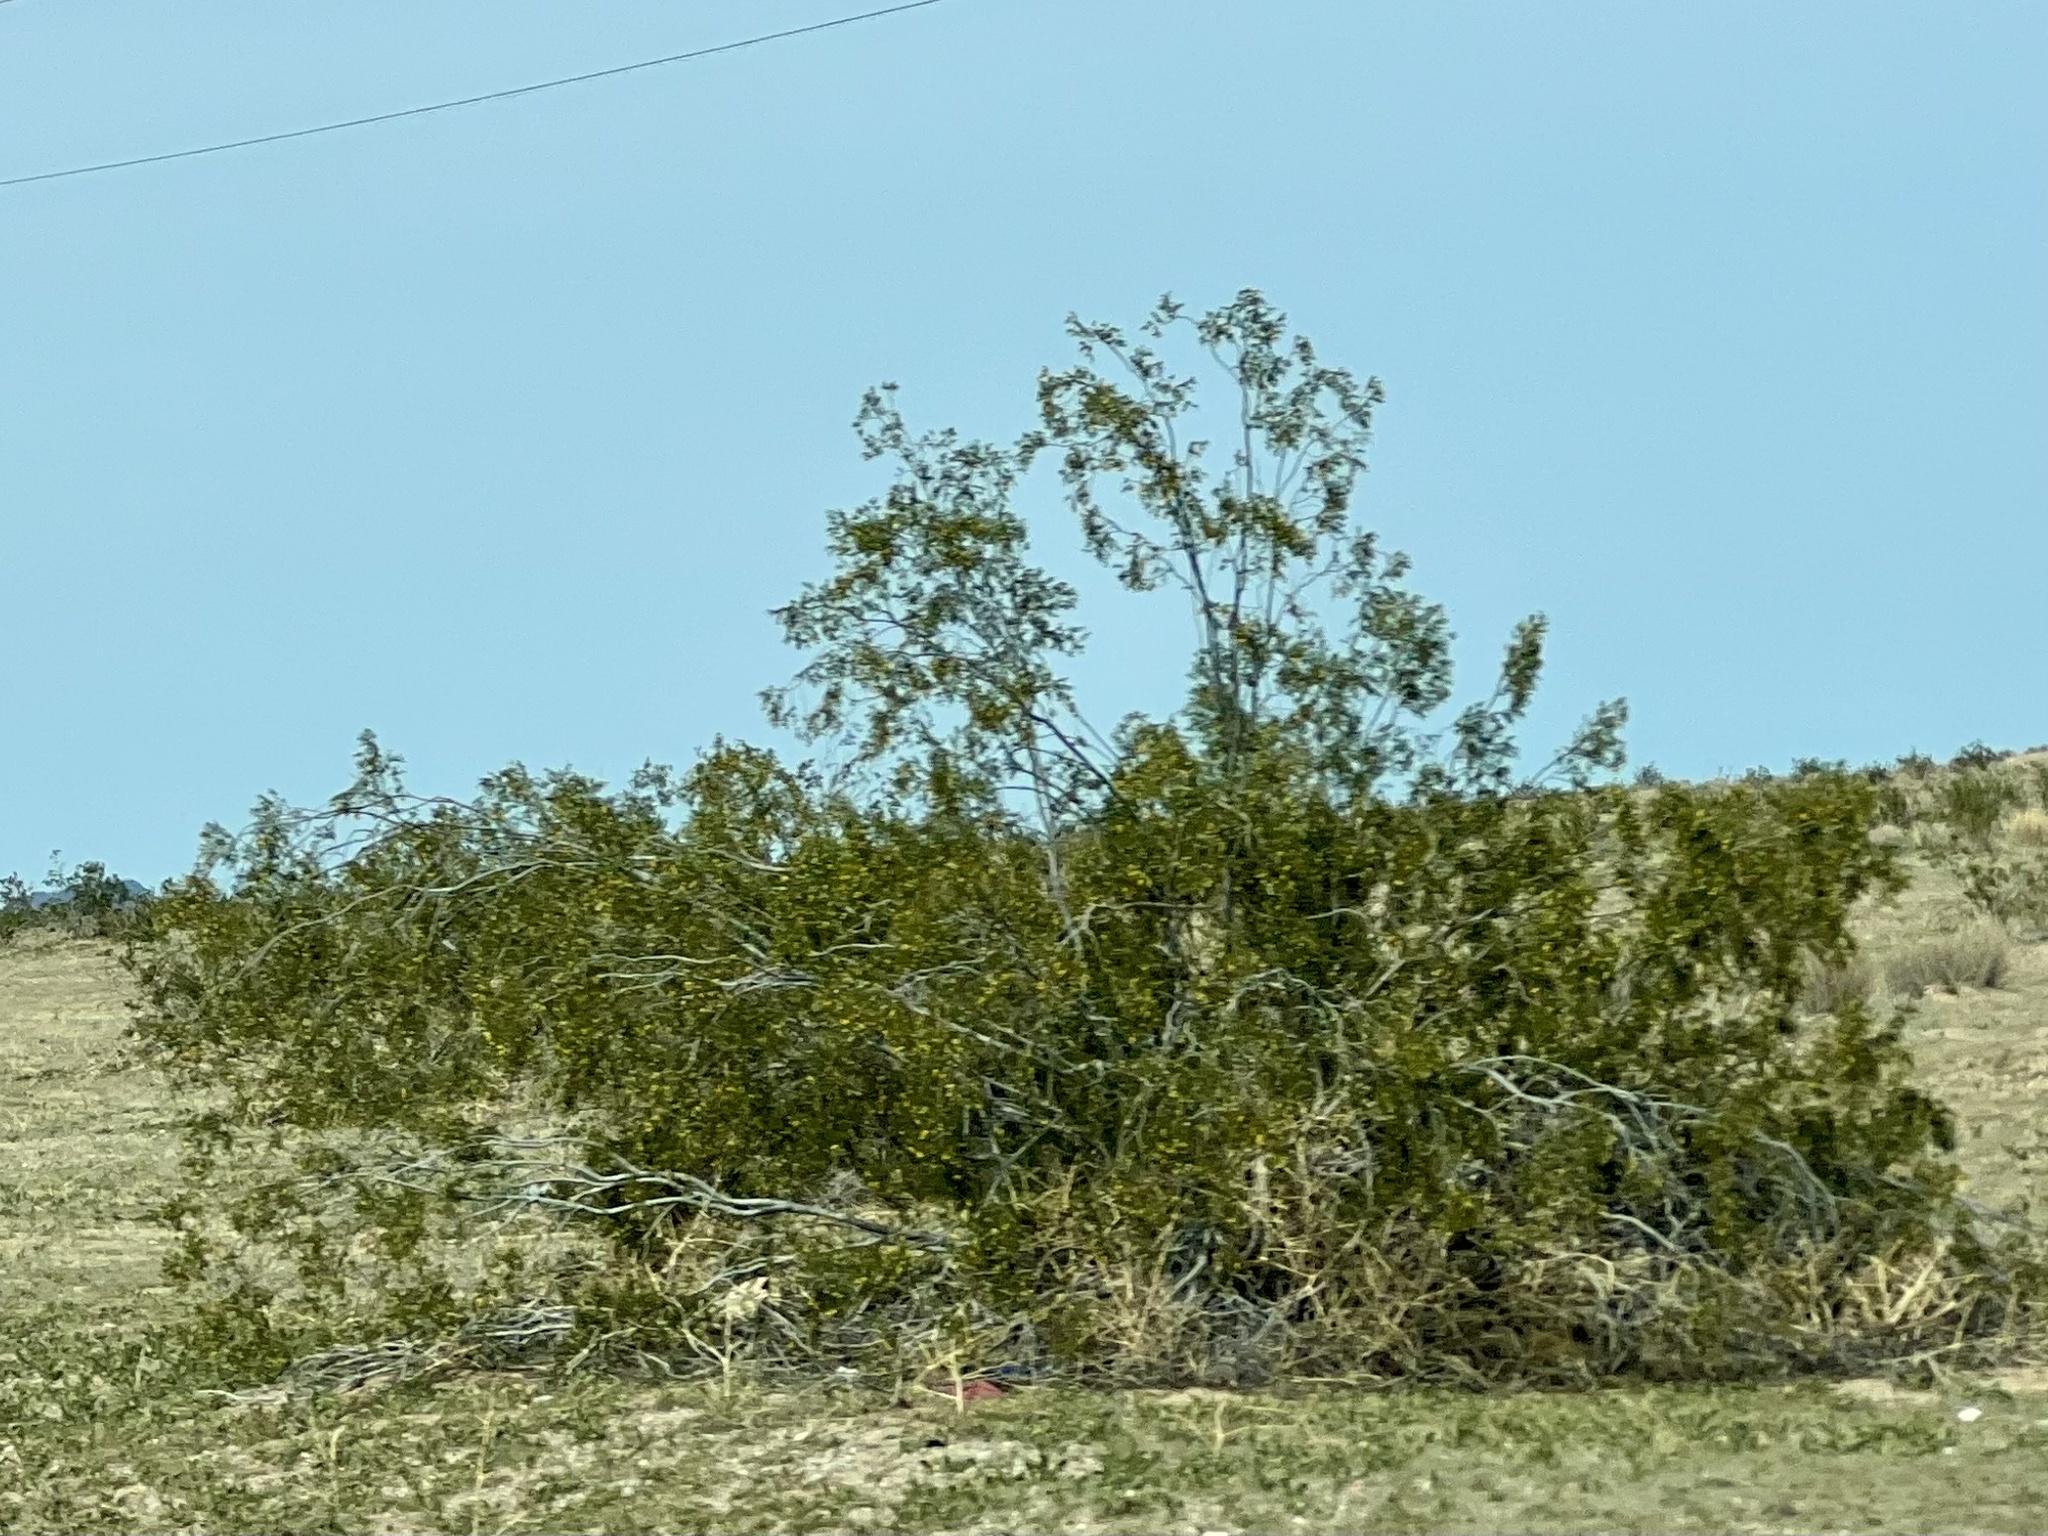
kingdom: Plantae
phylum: Tracheophyta
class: Magnoliopsida
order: Zygophyllales
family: Zygophyllaceae
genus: Larrea
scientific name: Larrea tridentata
